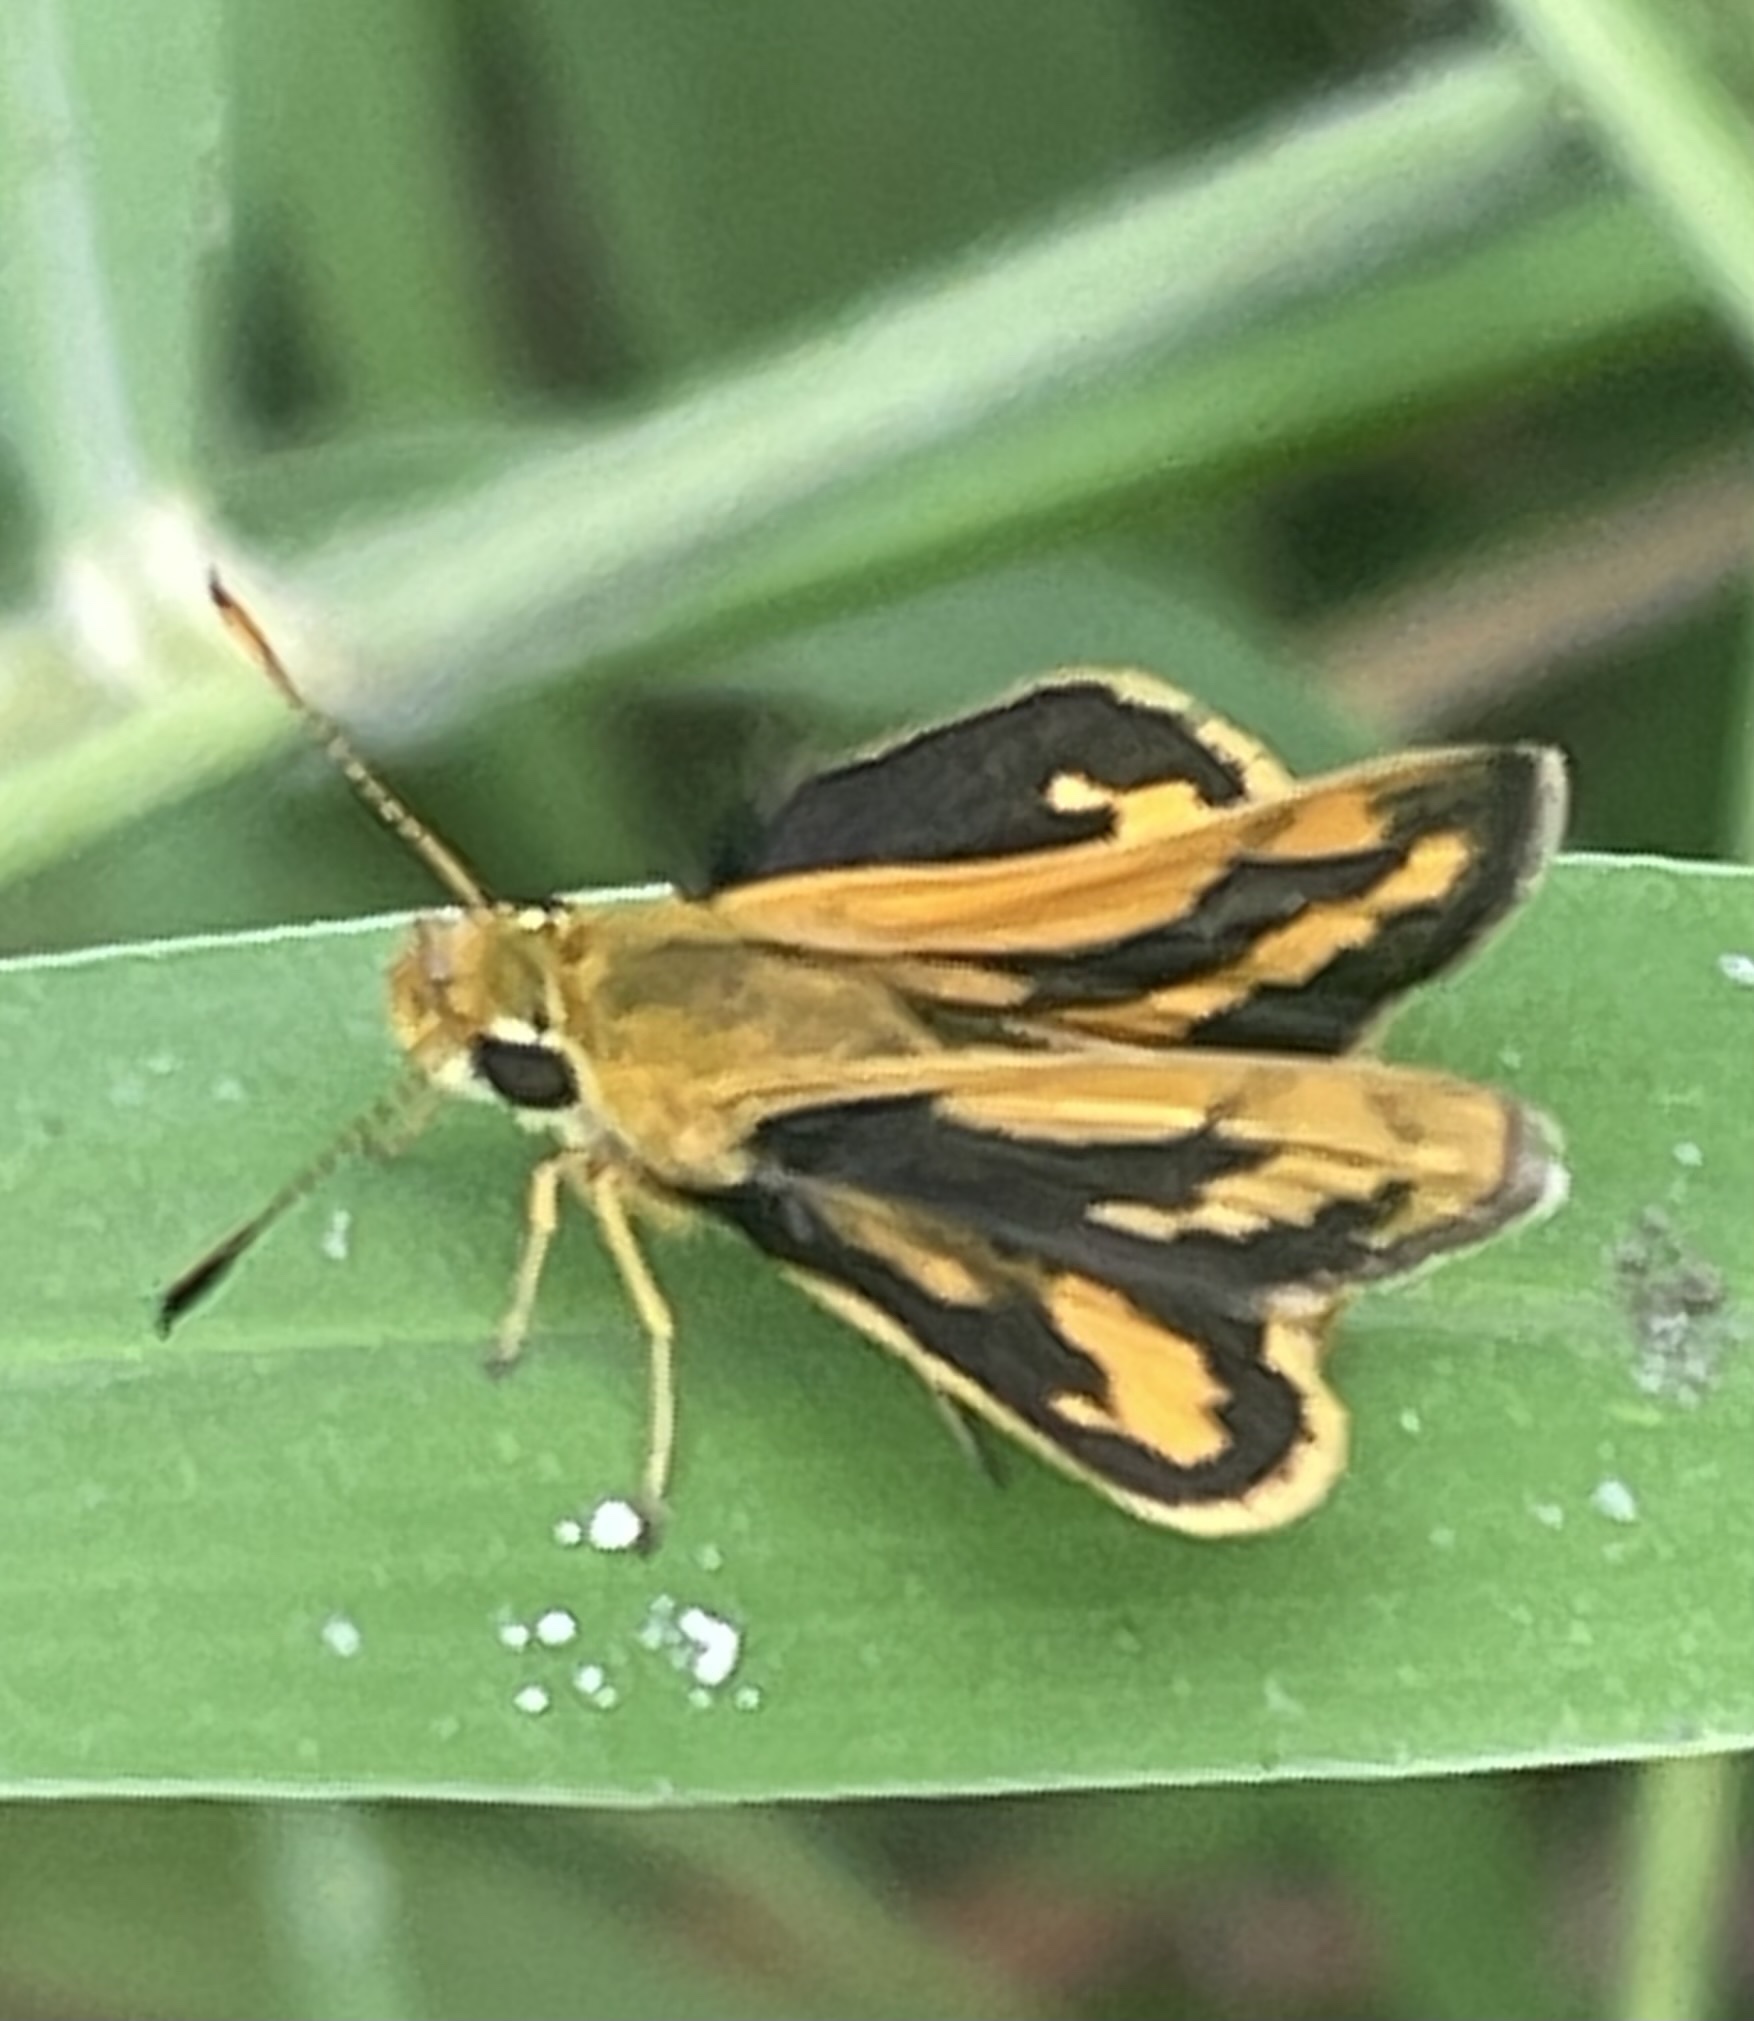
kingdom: Animalia
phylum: Arthropoda
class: Insecta
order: Lepidoptera
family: Hesperiidae
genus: Ocybadistes
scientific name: Ocybadistes walkeri
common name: Yellow-banded dart
